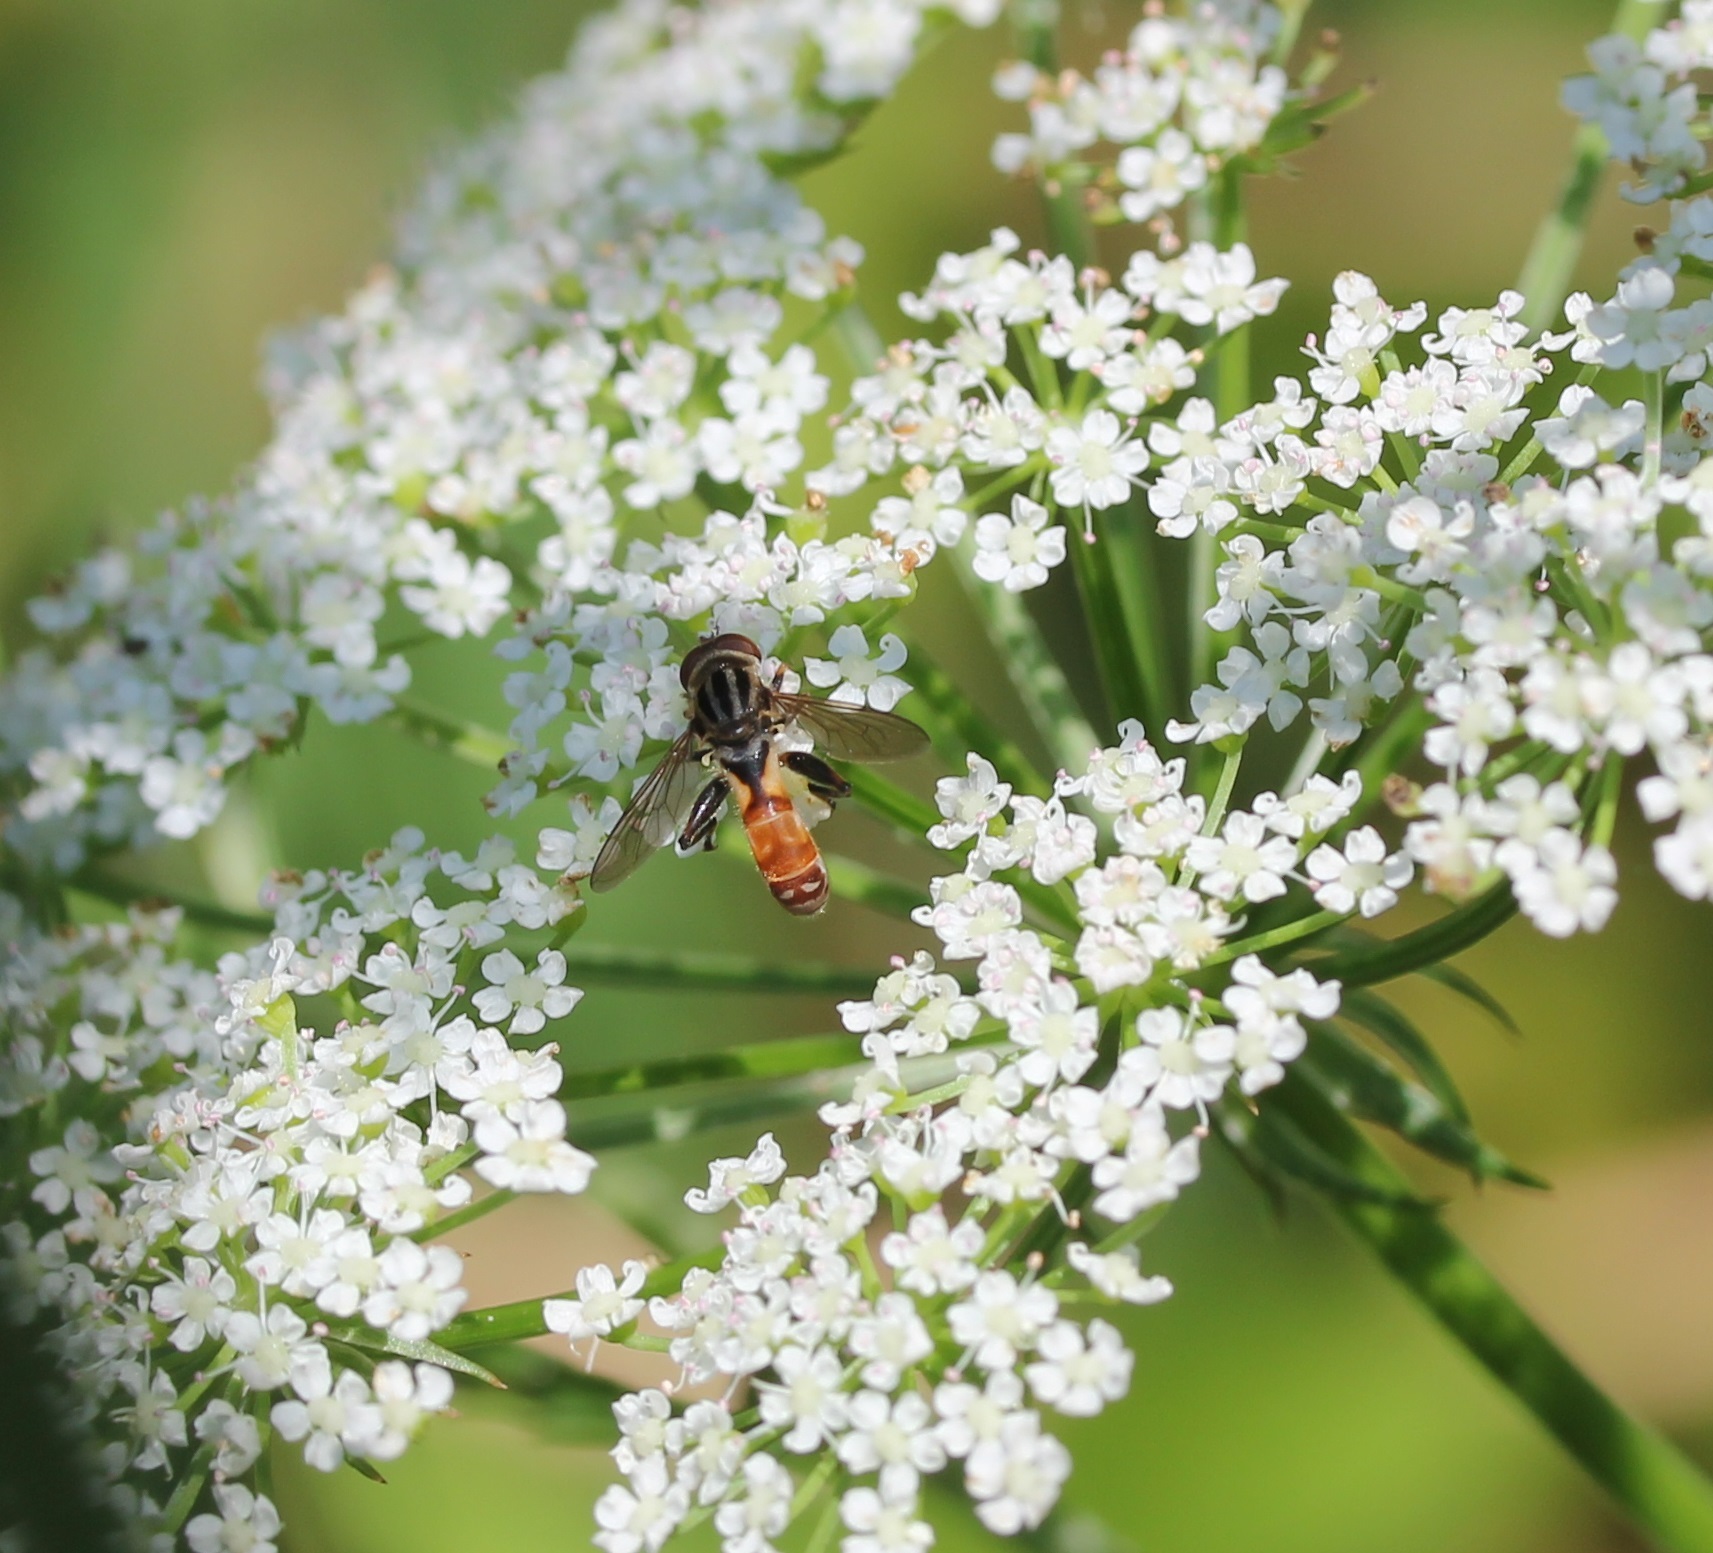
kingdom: Animalia
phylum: Arthropoda
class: Insecta
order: Diptera
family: Syrphidae
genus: Anasimyia
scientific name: Anasimyia distinctus
